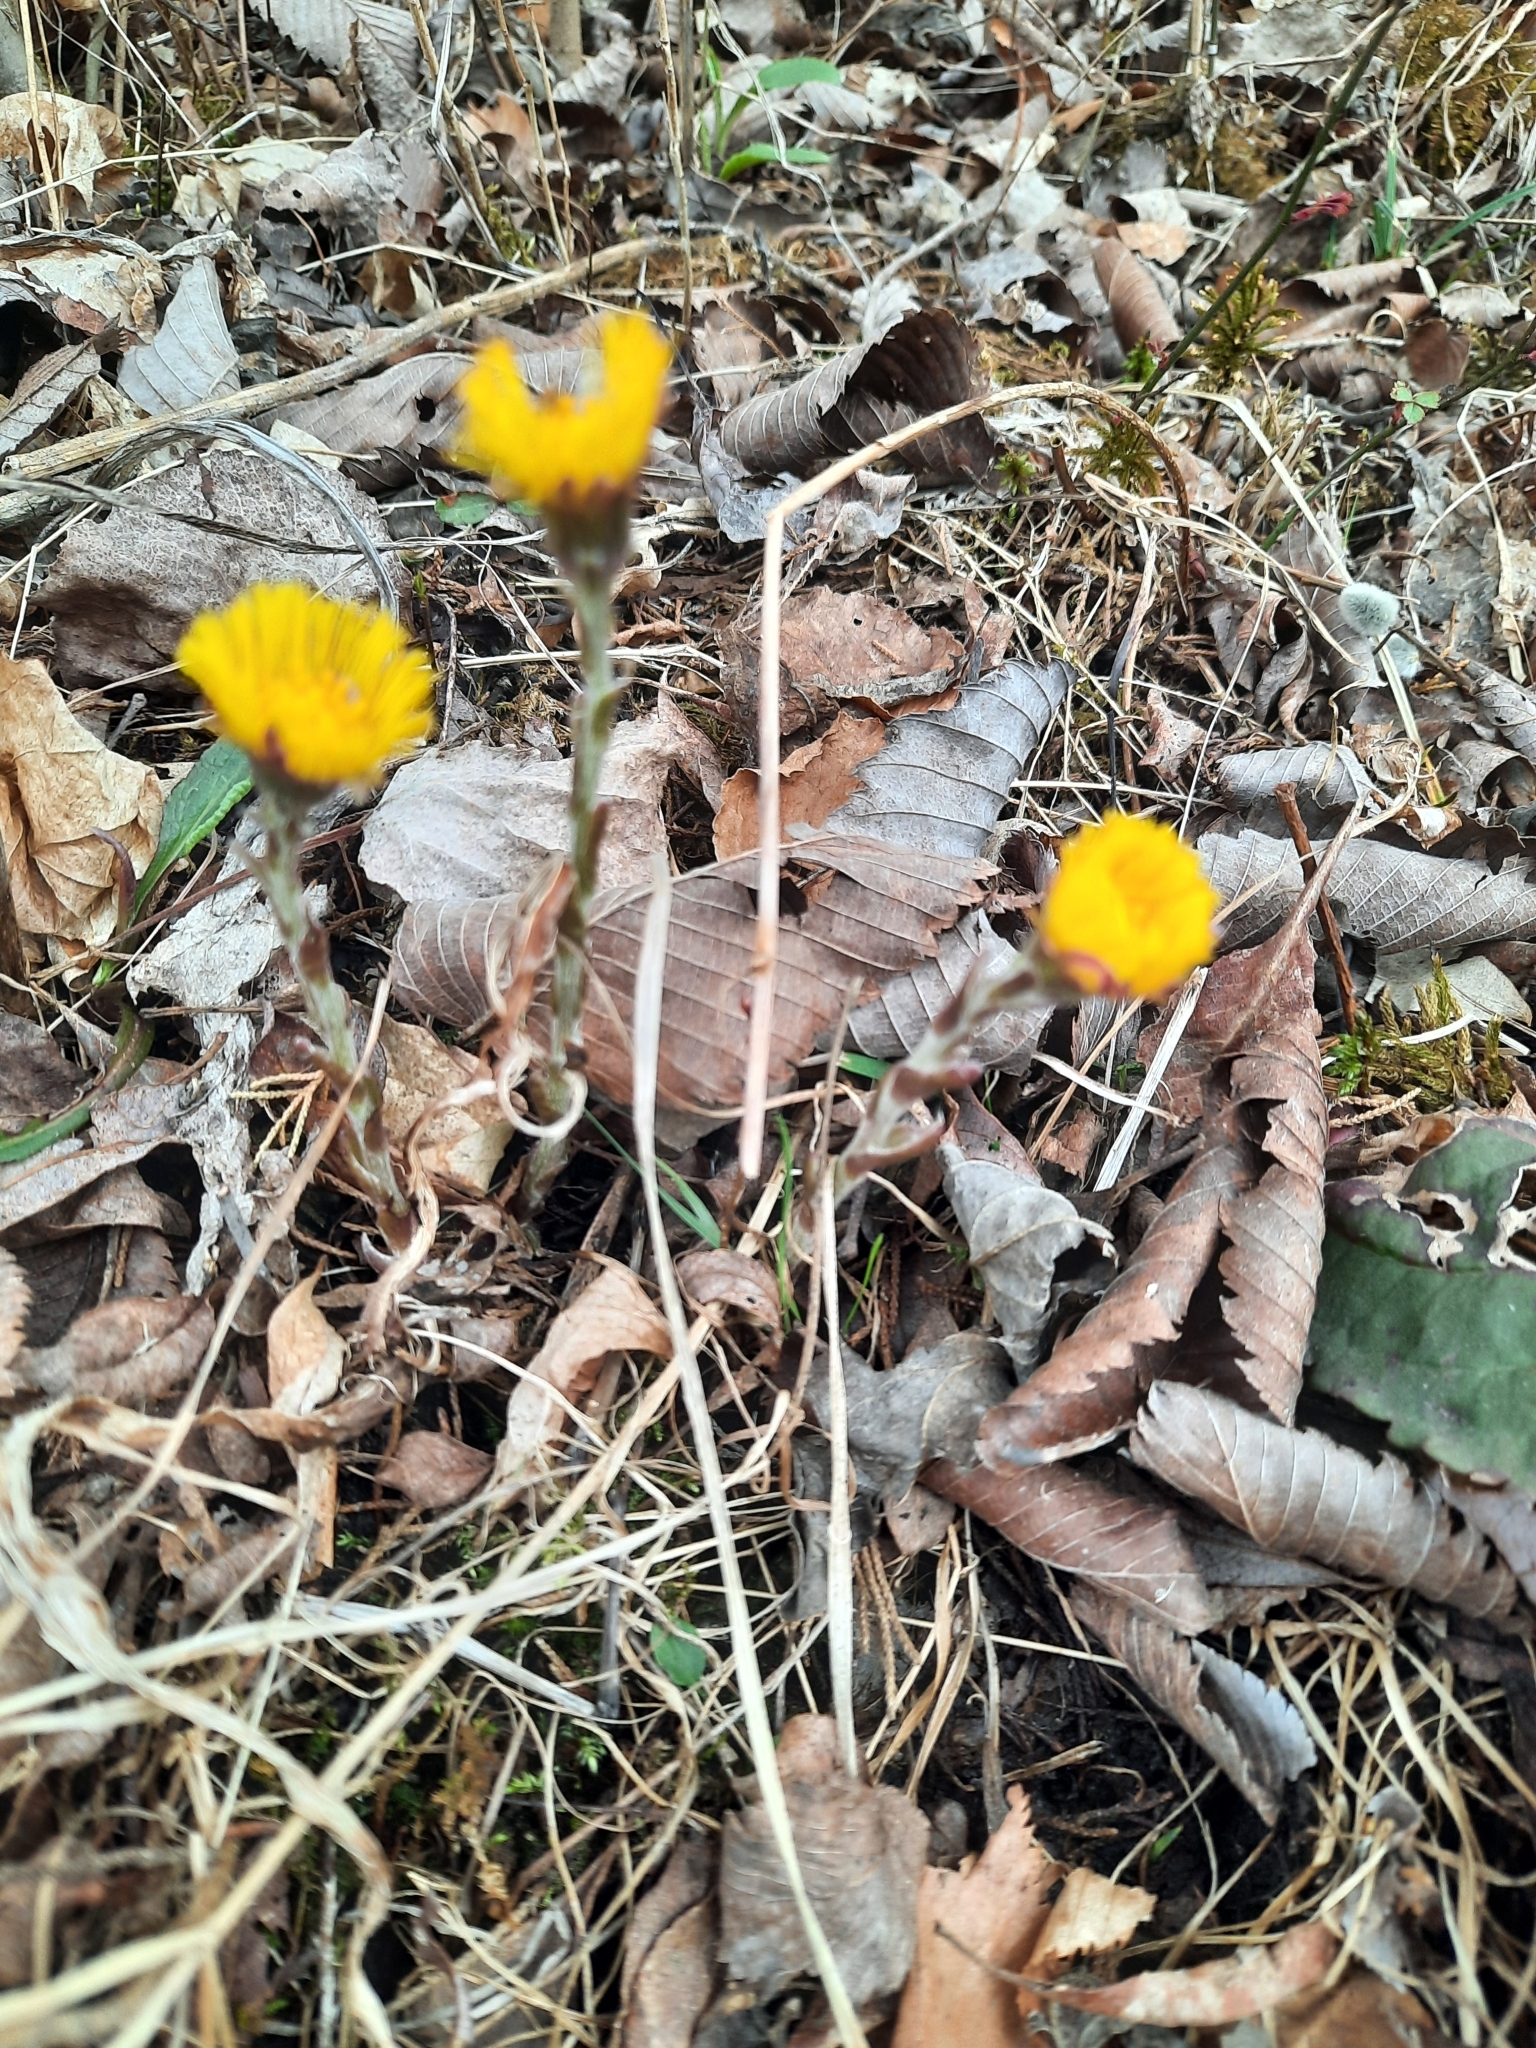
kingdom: Plantae
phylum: Tracheophyta
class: Magnoliopsida
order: Asterales
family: Asteraceae
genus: Tussilago
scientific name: Tussilago farfara
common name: Coltsfoot
